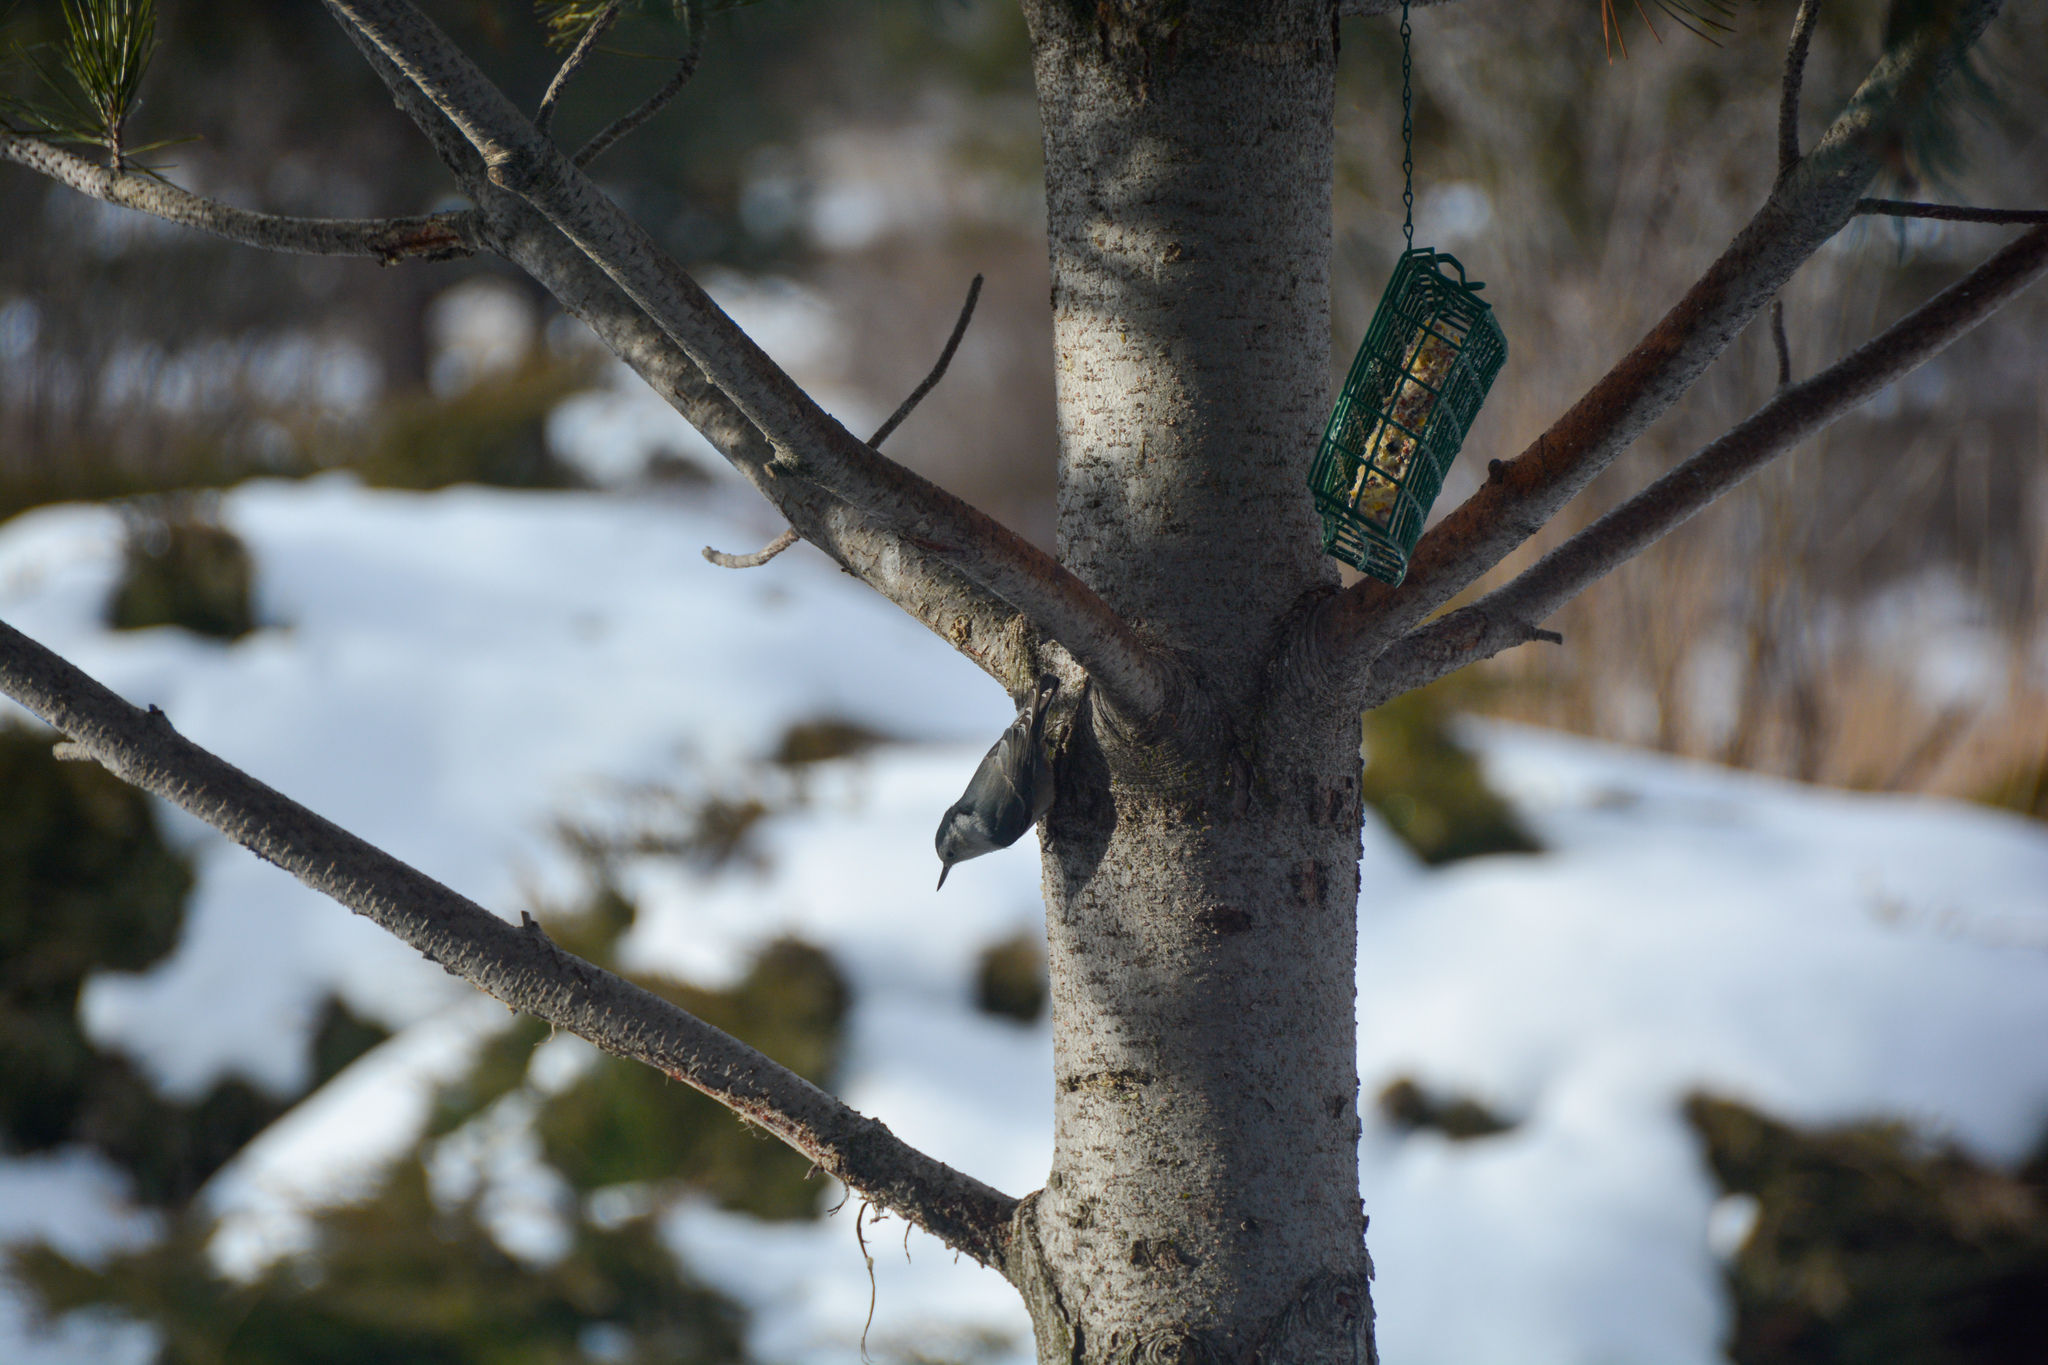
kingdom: Animalia
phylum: Chordata
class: Aves
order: Passeriformes
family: Sittidae
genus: Sitta
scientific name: Sitta carolinensis
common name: White-breasted nuthatch
